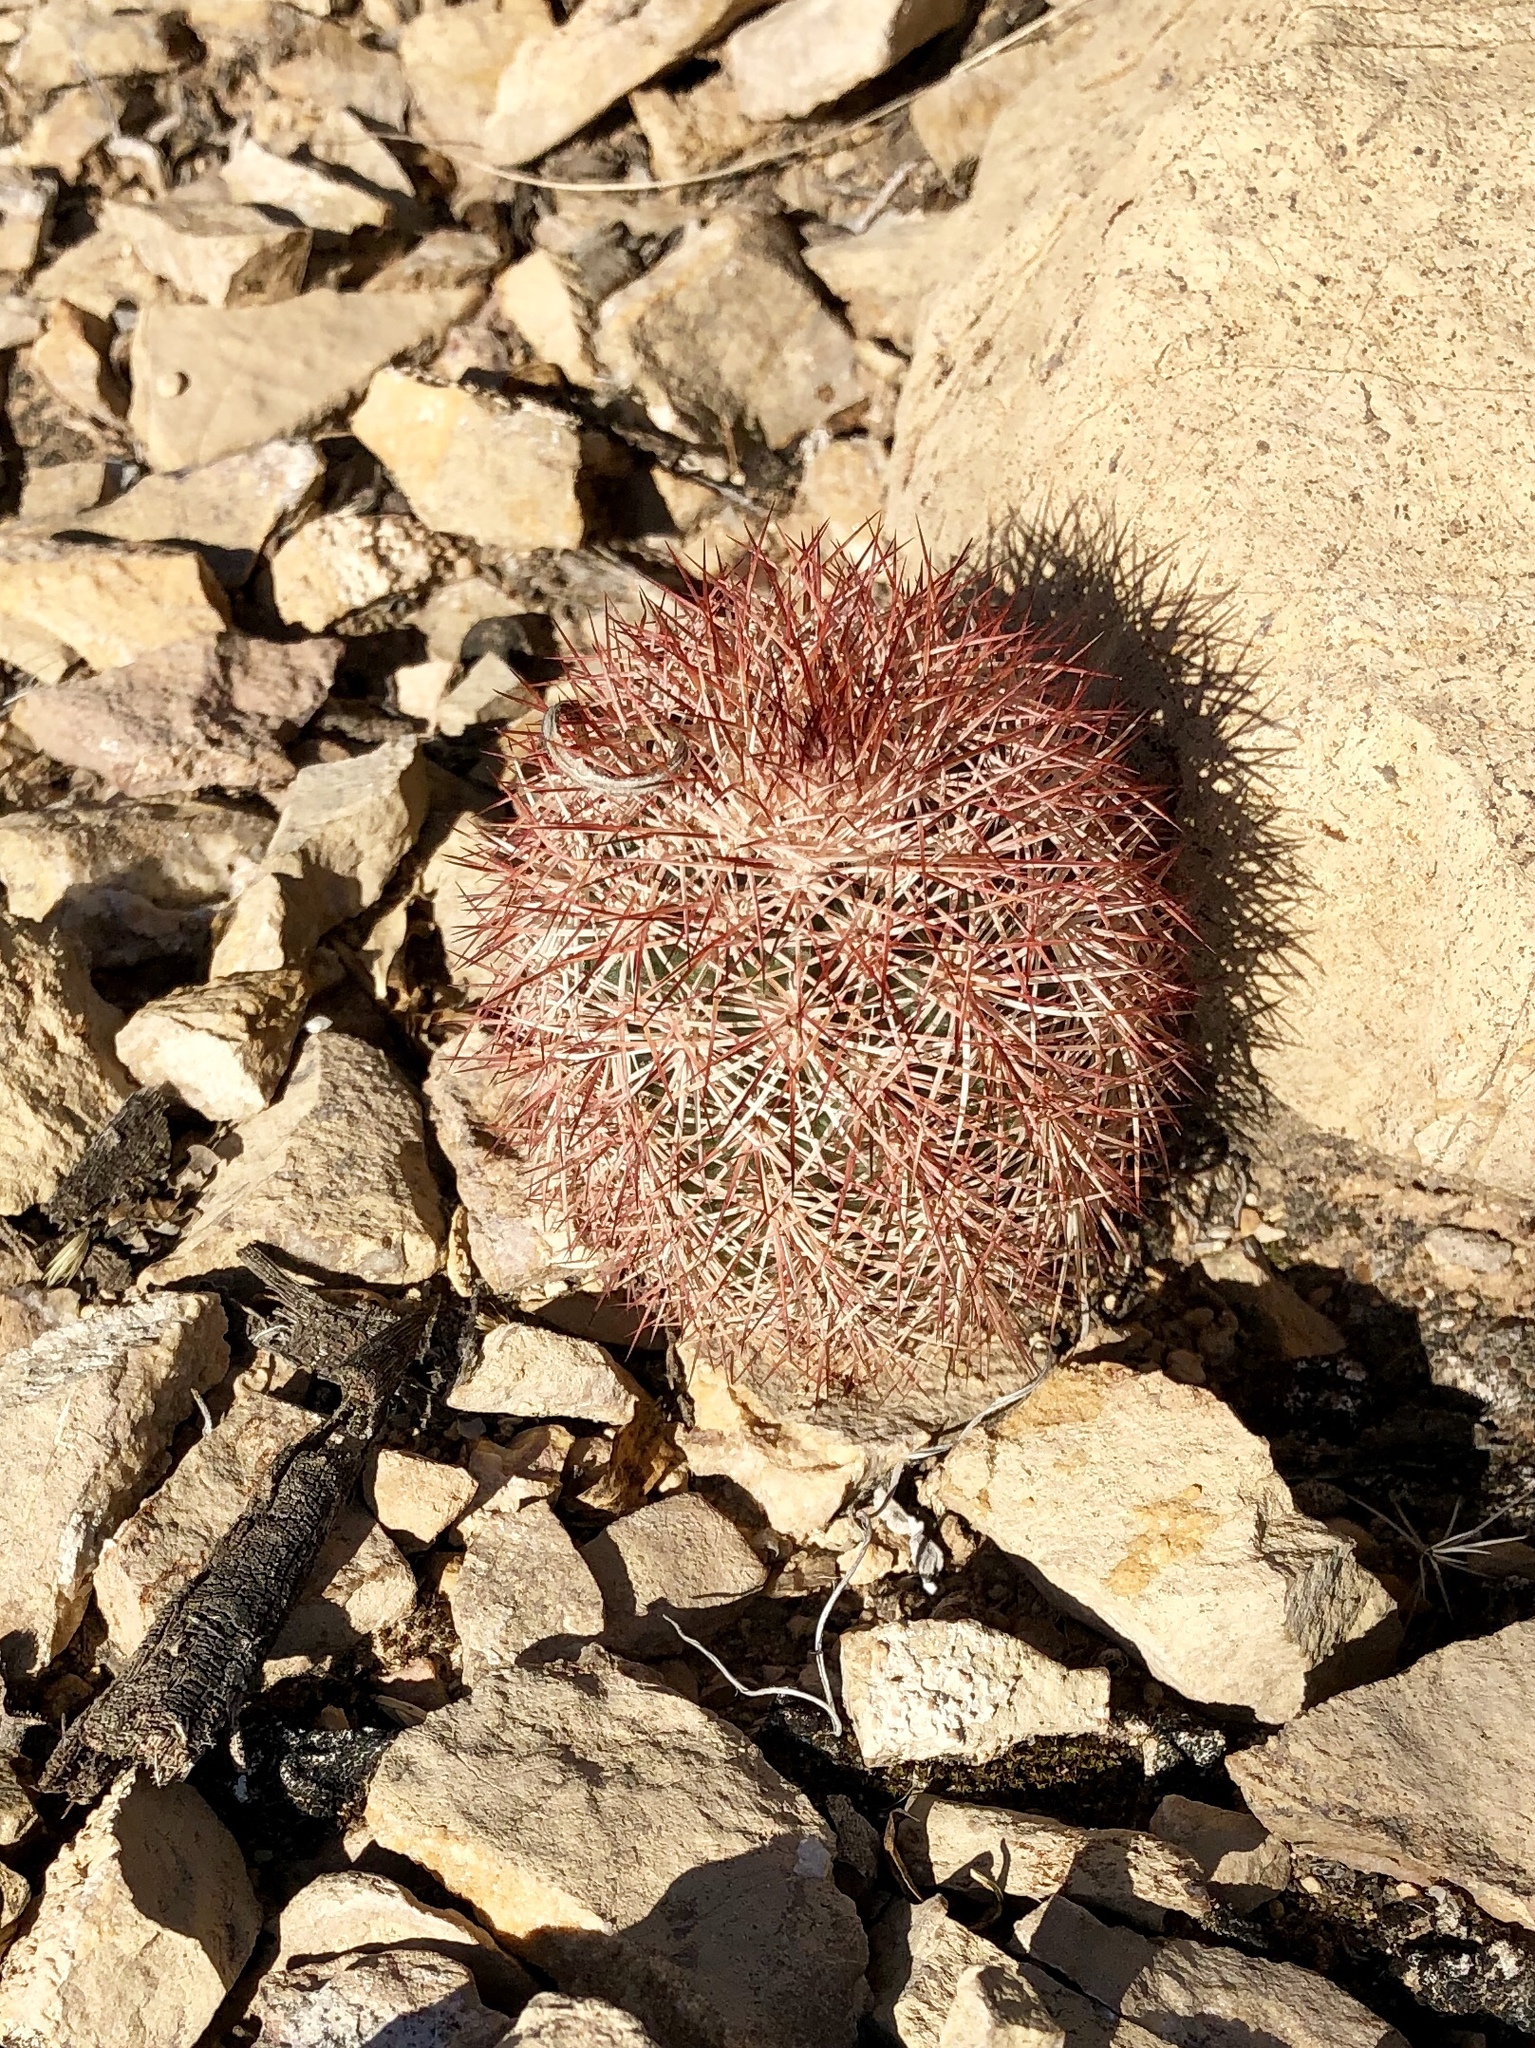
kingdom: Plantae
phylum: Tracheophyta
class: Magnoliopsida
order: Caryophyllales
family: Cactaceae
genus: Echinocereus
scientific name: Echinocereus dasyacanthus
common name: Spiny hedgehog cactus
